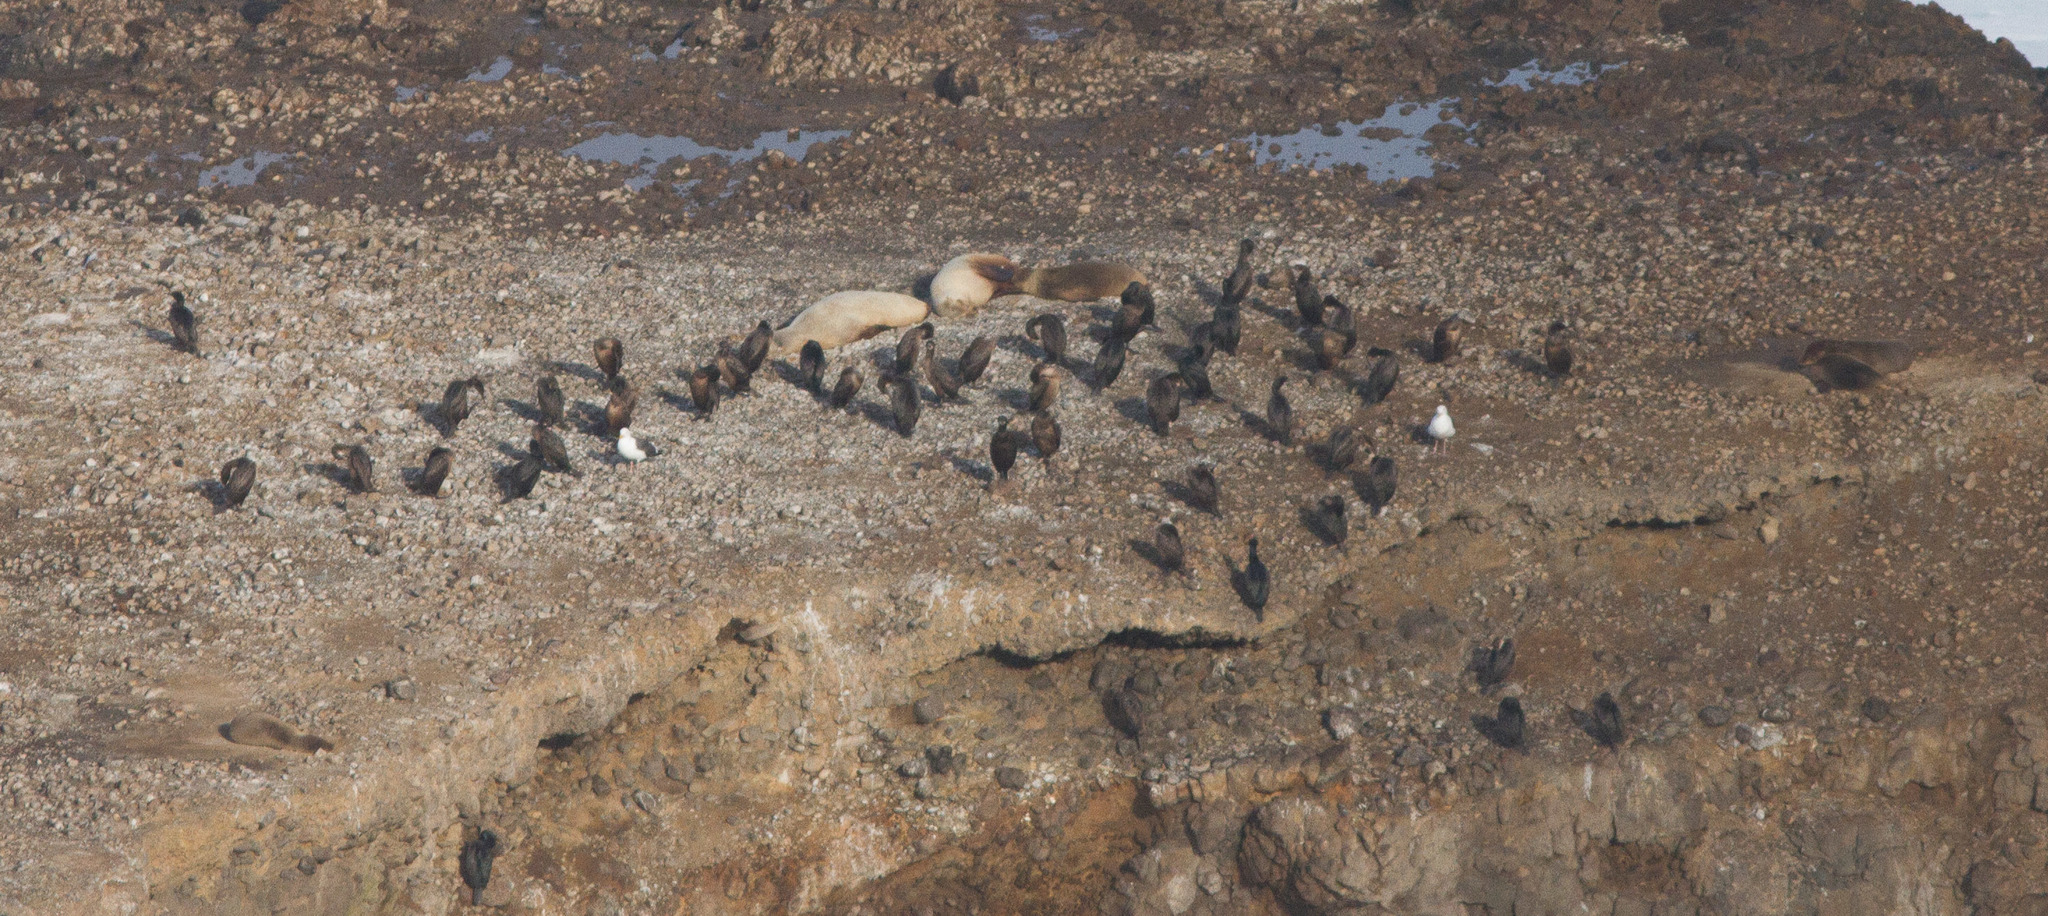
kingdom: Animalia
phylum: Chordata
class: Aves
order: Suliformes
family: Phalacrocoracidae
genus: Urile
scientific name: Urile penicillatus
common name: Brandt's cormorant
